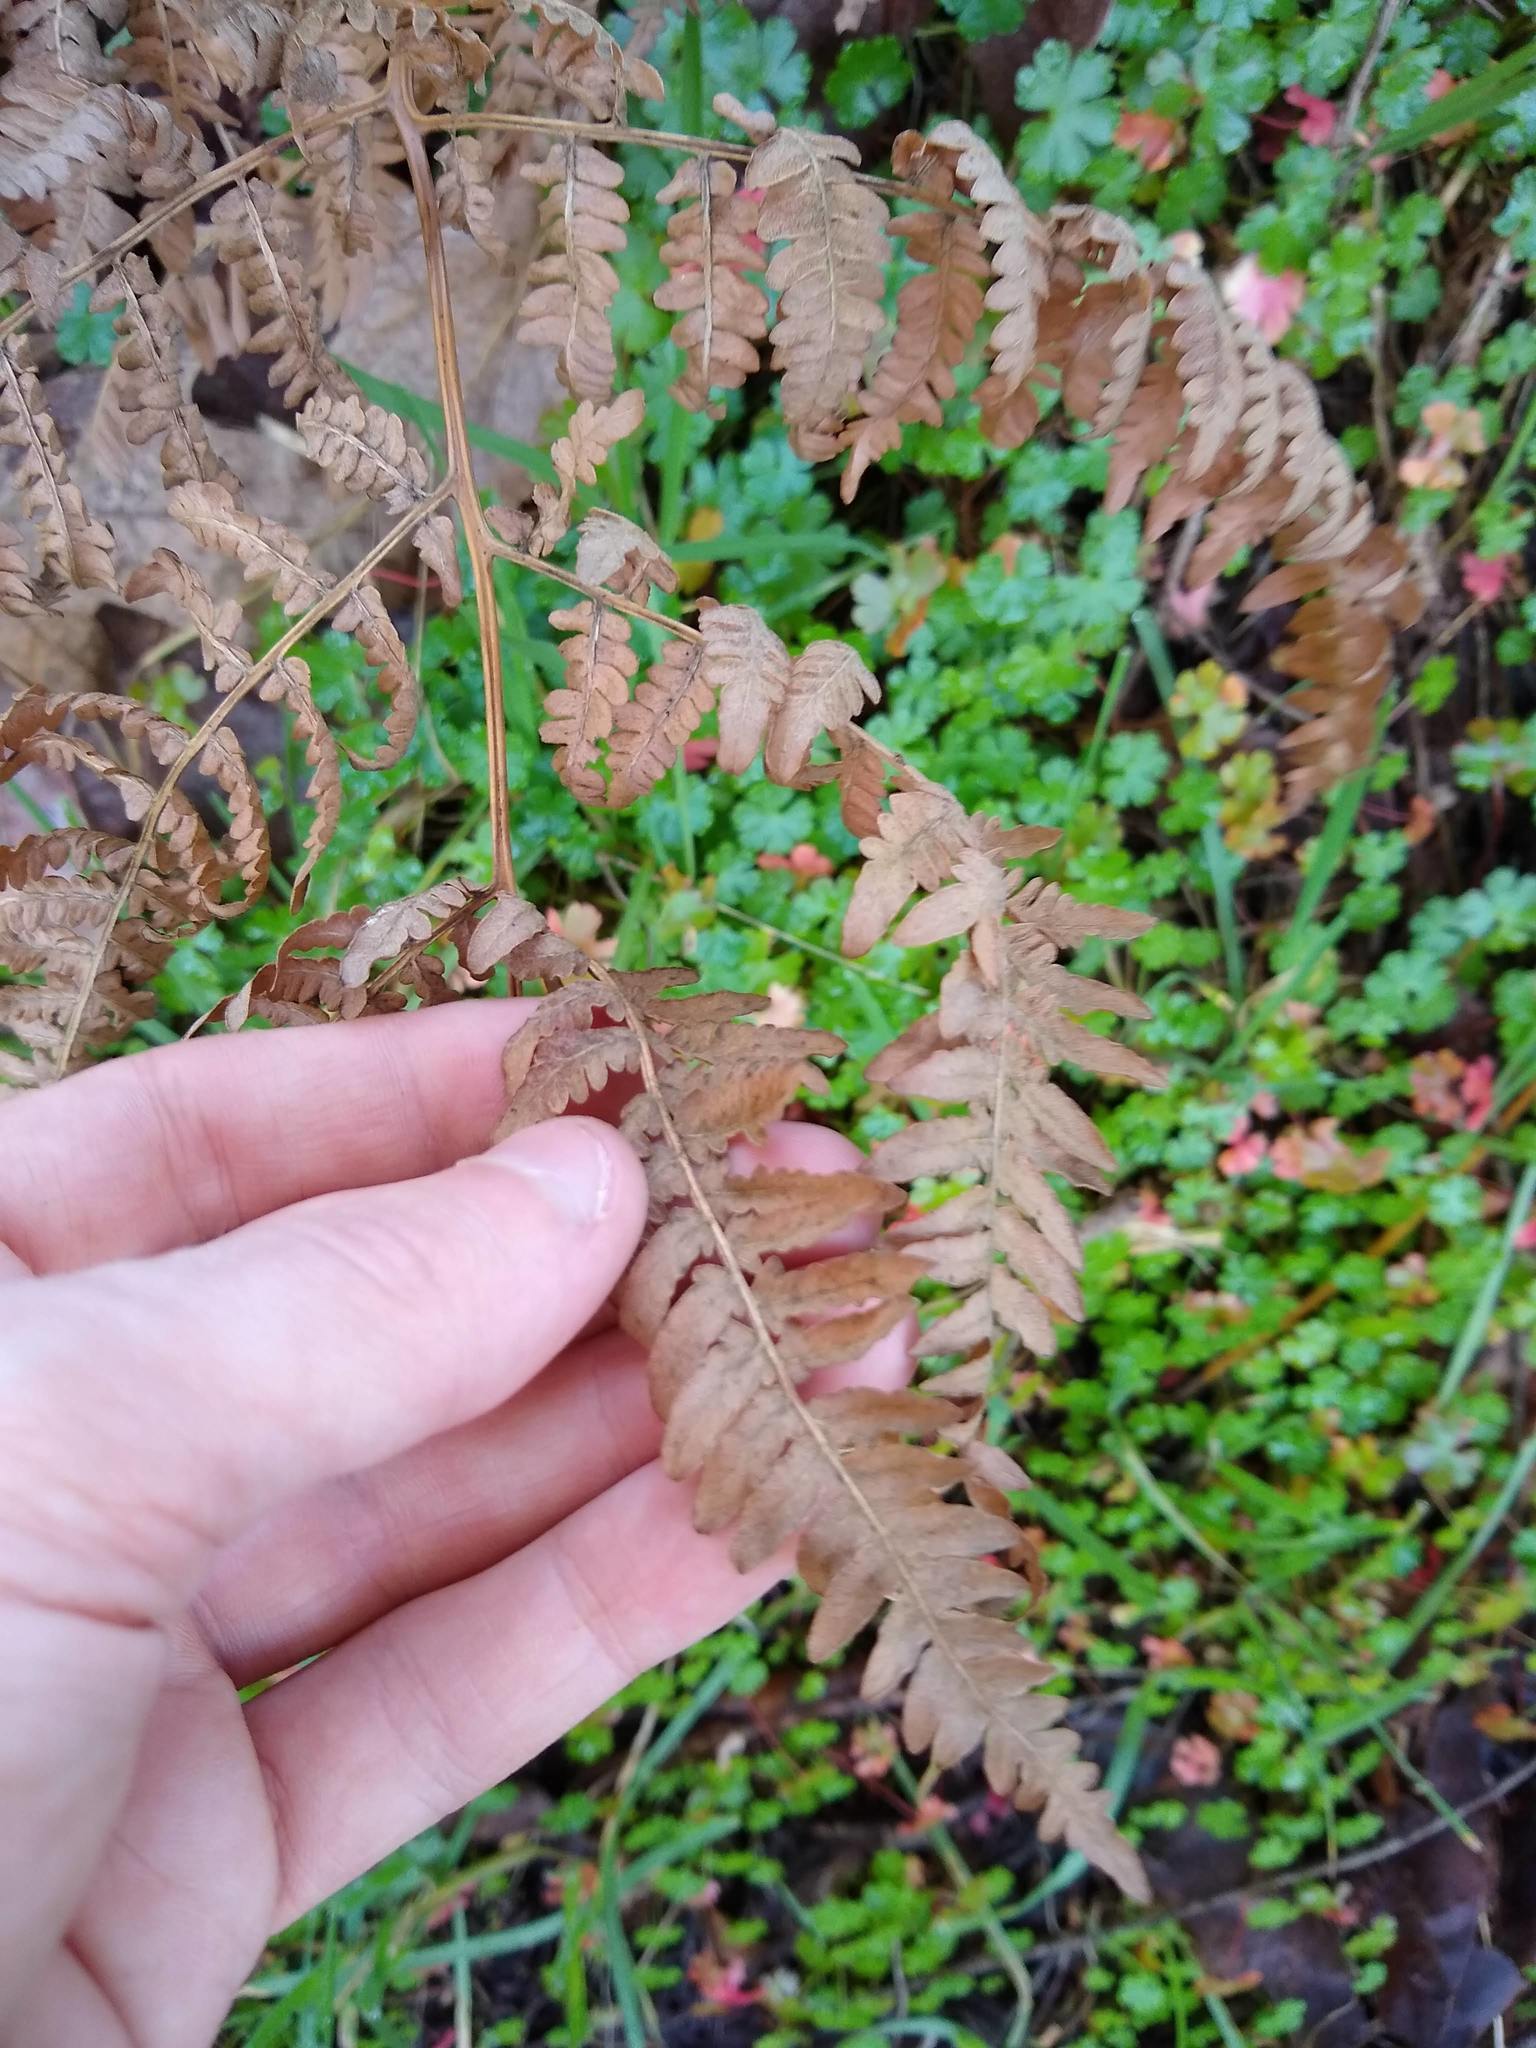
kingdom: Plantae
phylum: Tracheophyta
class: Polypodiopsida
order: Polypodiales
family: Dennstaedtiaceae
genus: Pteridium
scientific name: Pteridium aquilinum
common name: Bracken
